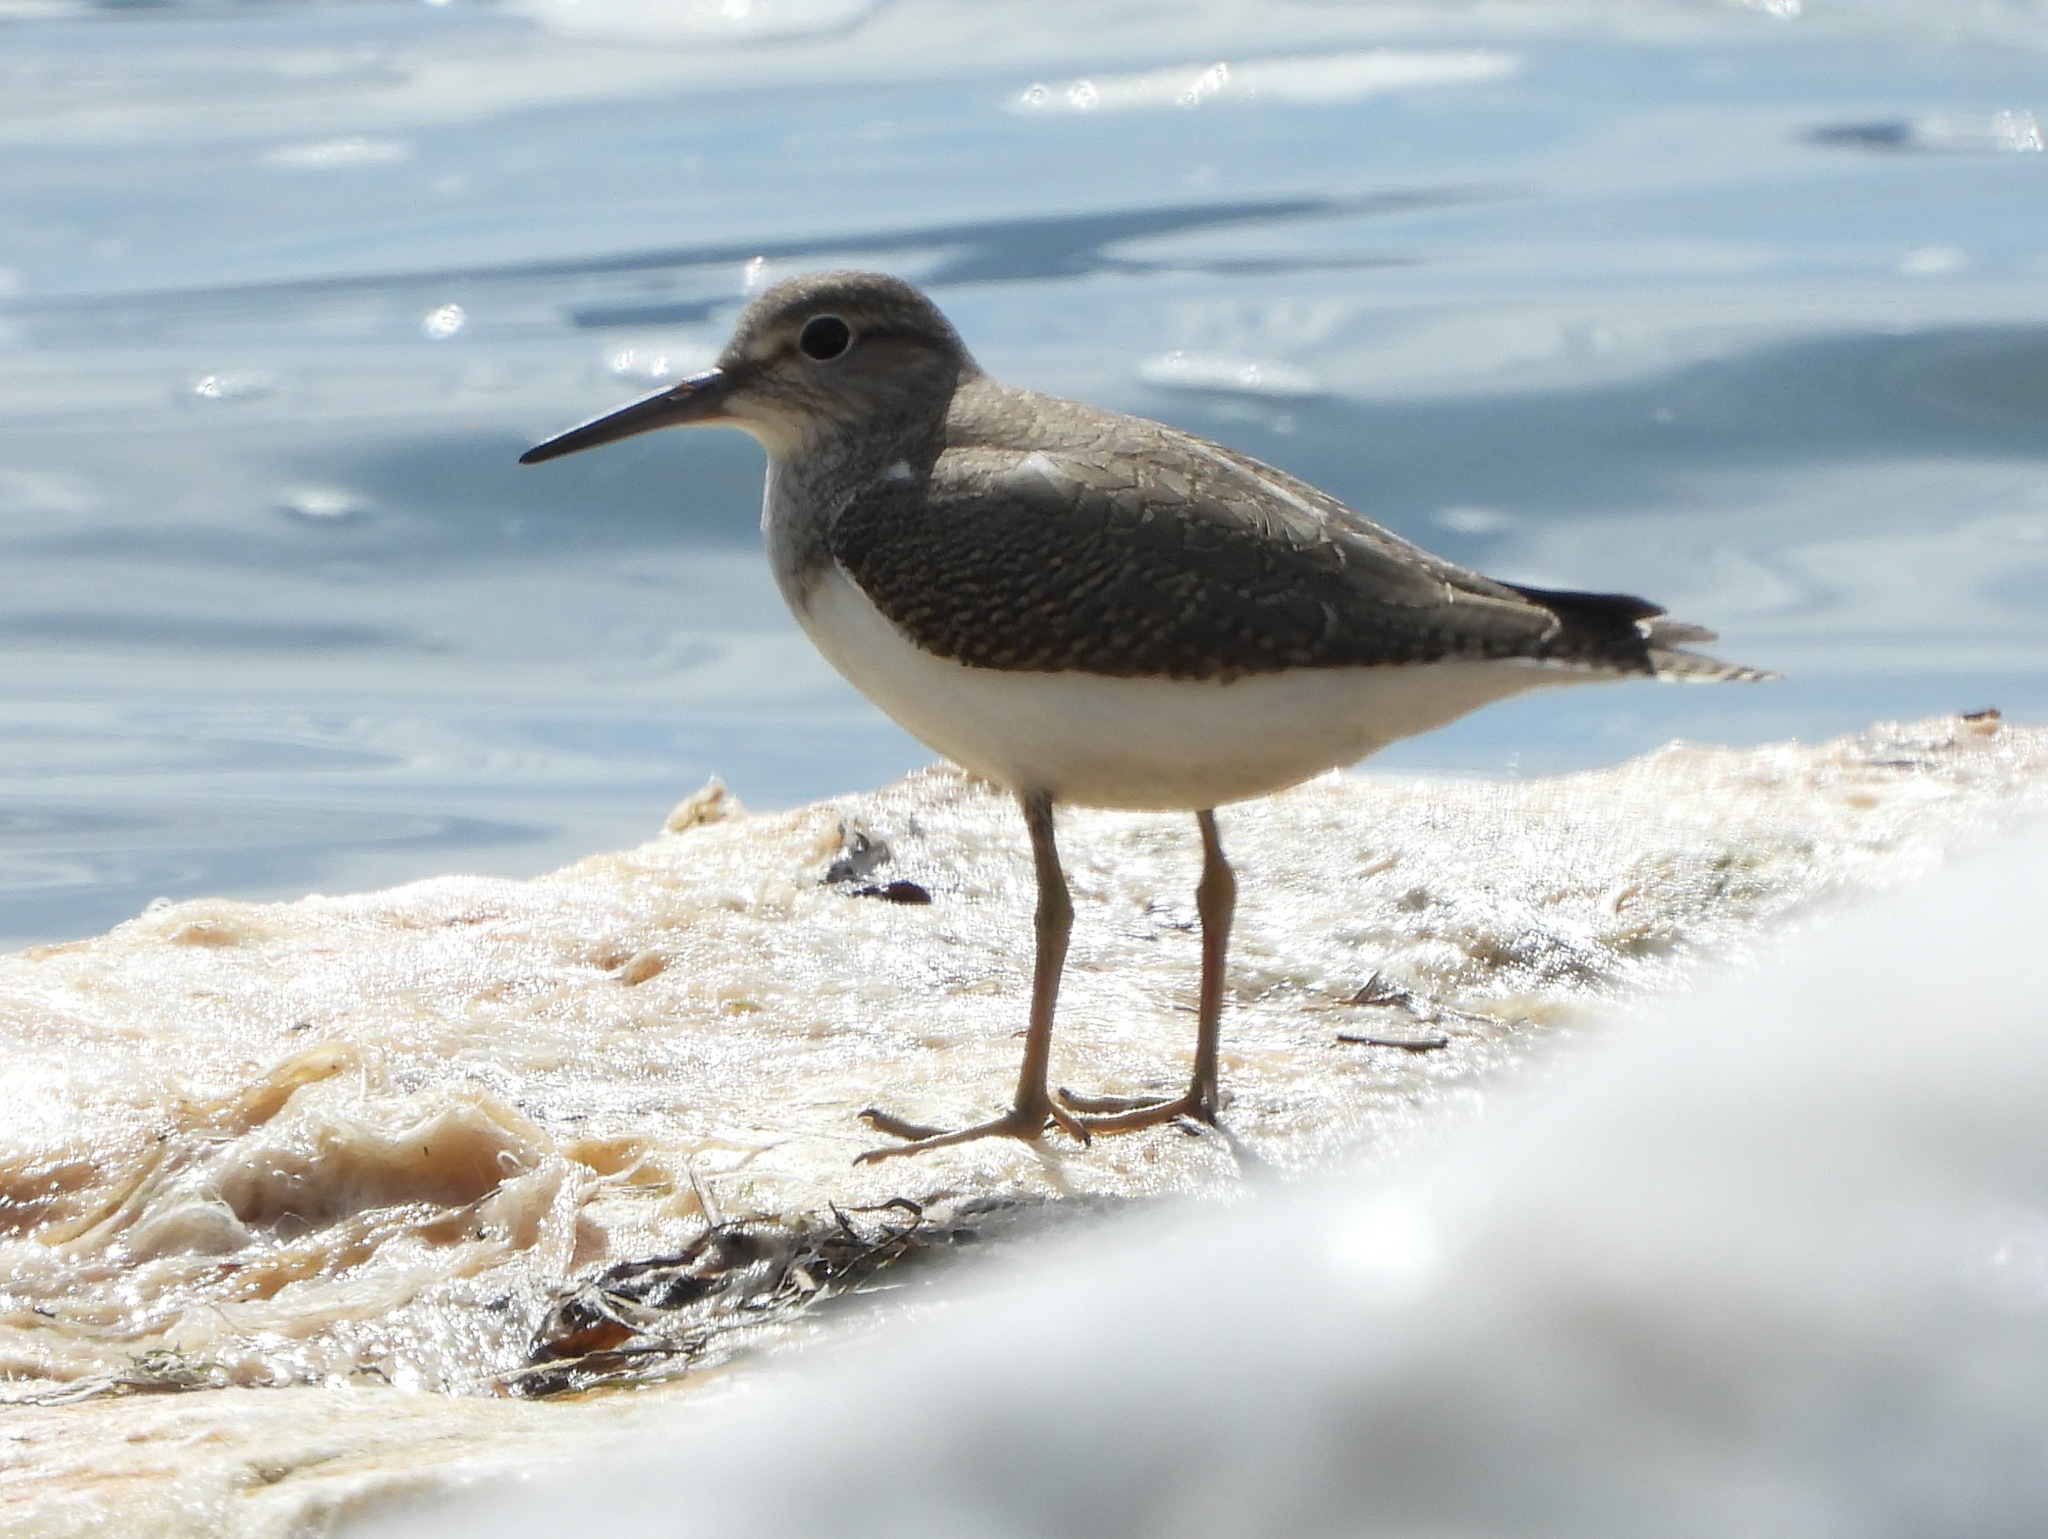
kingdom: Animalia
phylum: Chordata
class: Aves
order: Charadriiformes
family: Scolopacidae
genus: Actitis
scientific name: Actitis hypoleucos
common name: Common sandpiper
